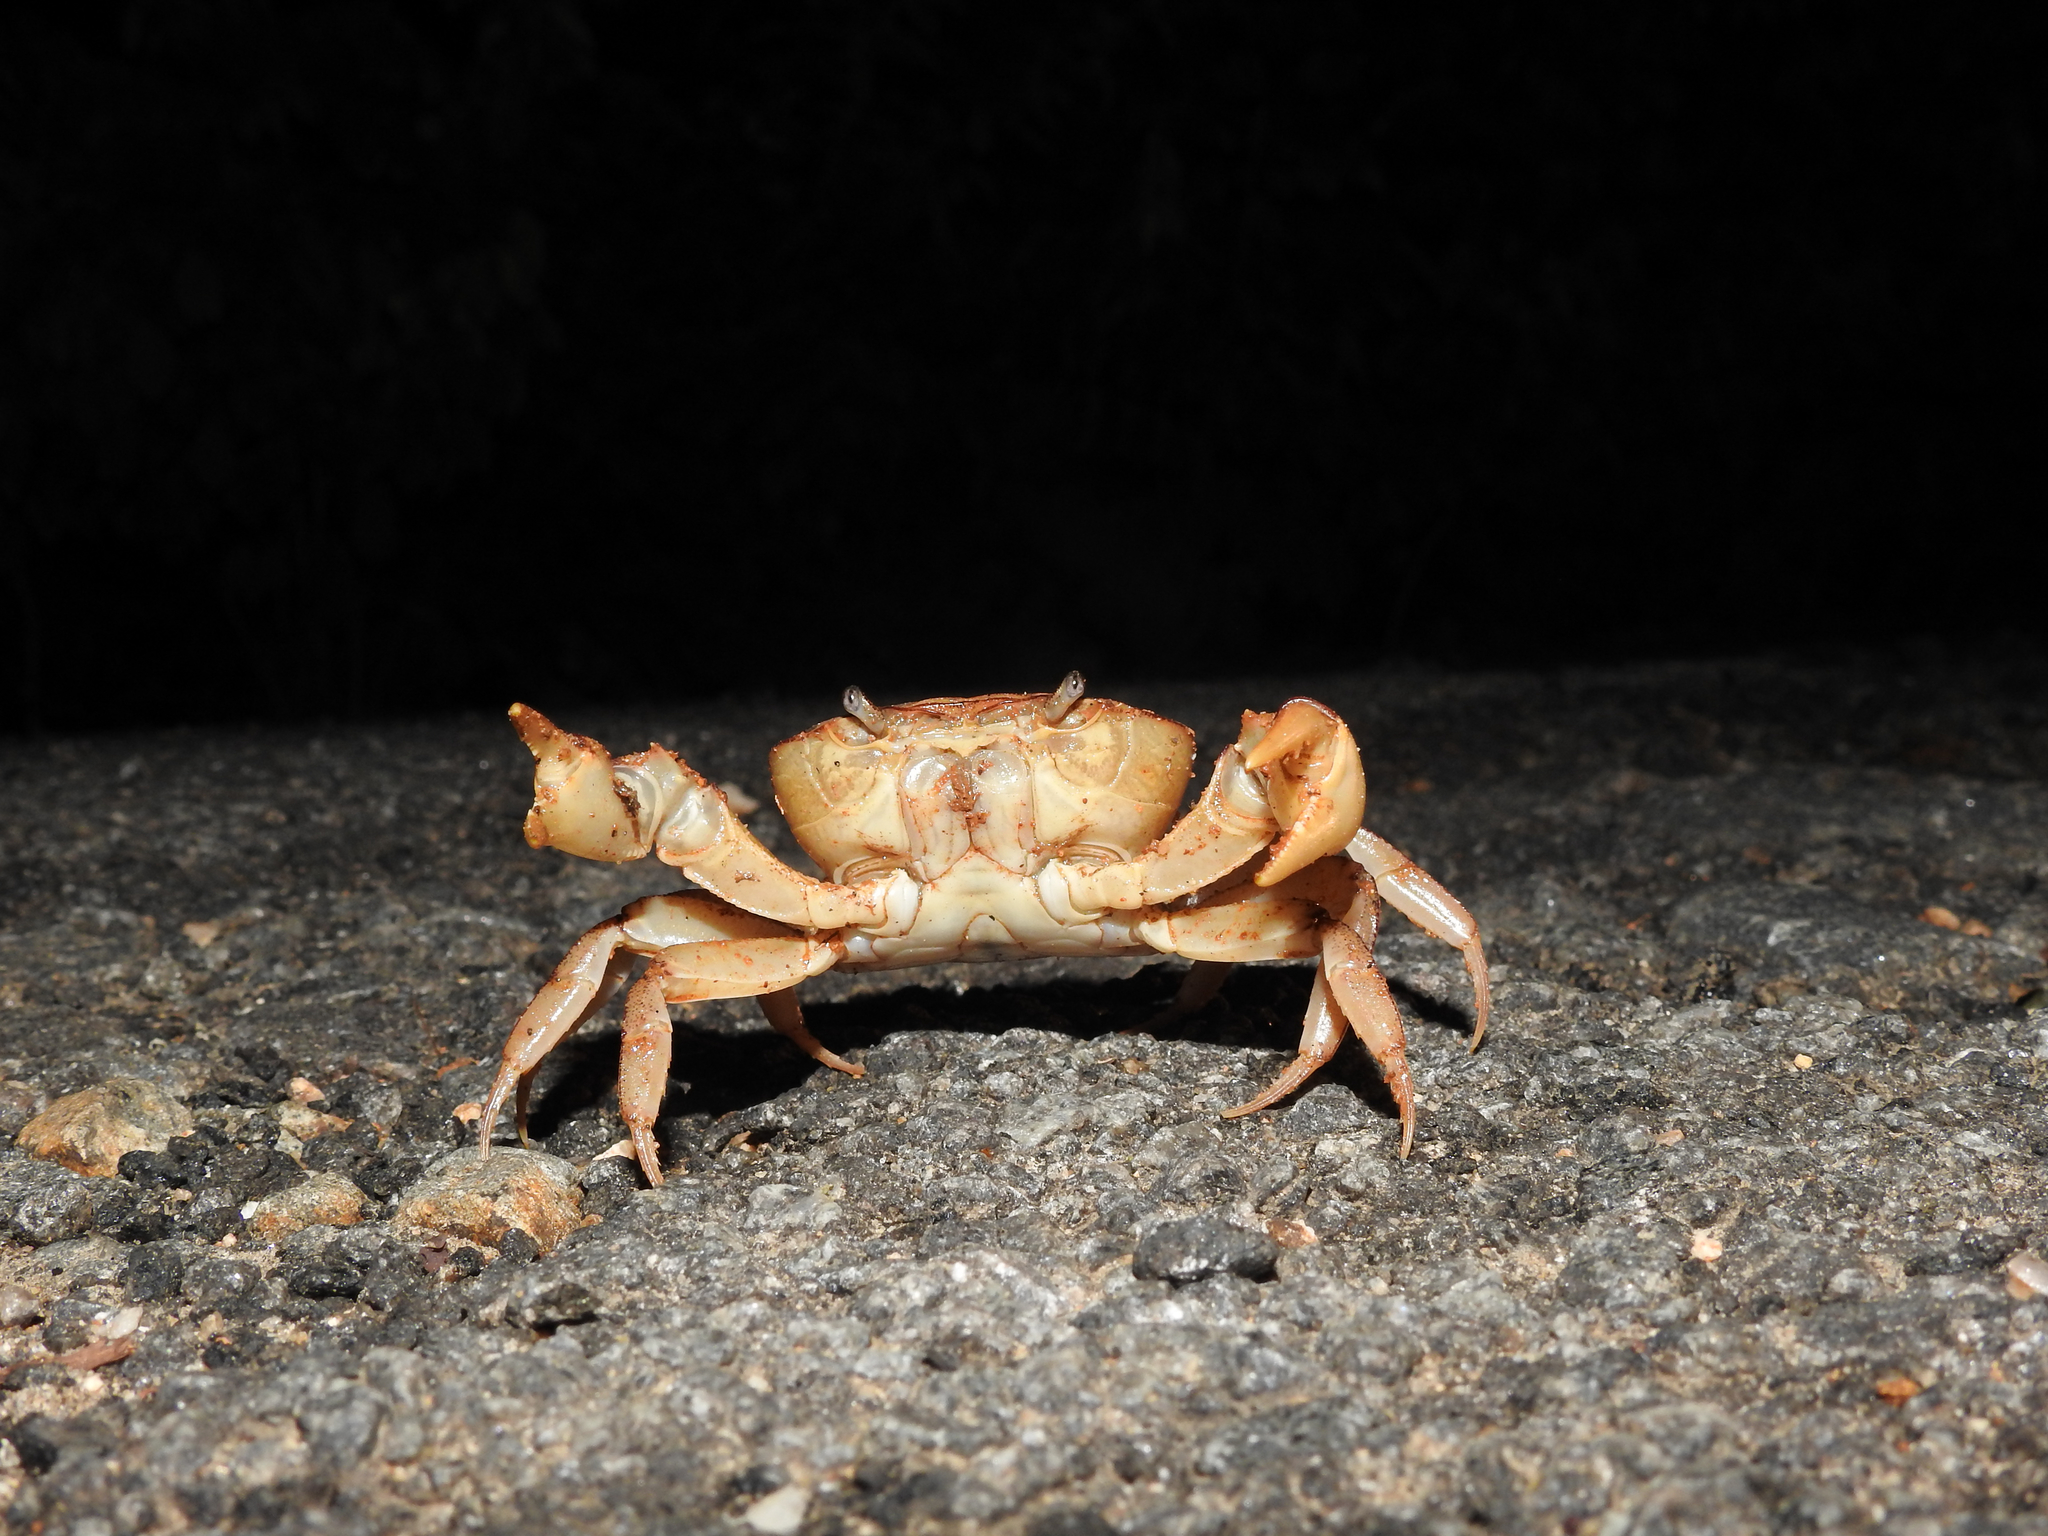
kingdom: Animalia
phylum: Arthropoda
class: Malacostraca
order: Decapoda
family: Gecarcinucidae
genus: Oziotelphusa
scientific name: Oziotelphusa aurantia
